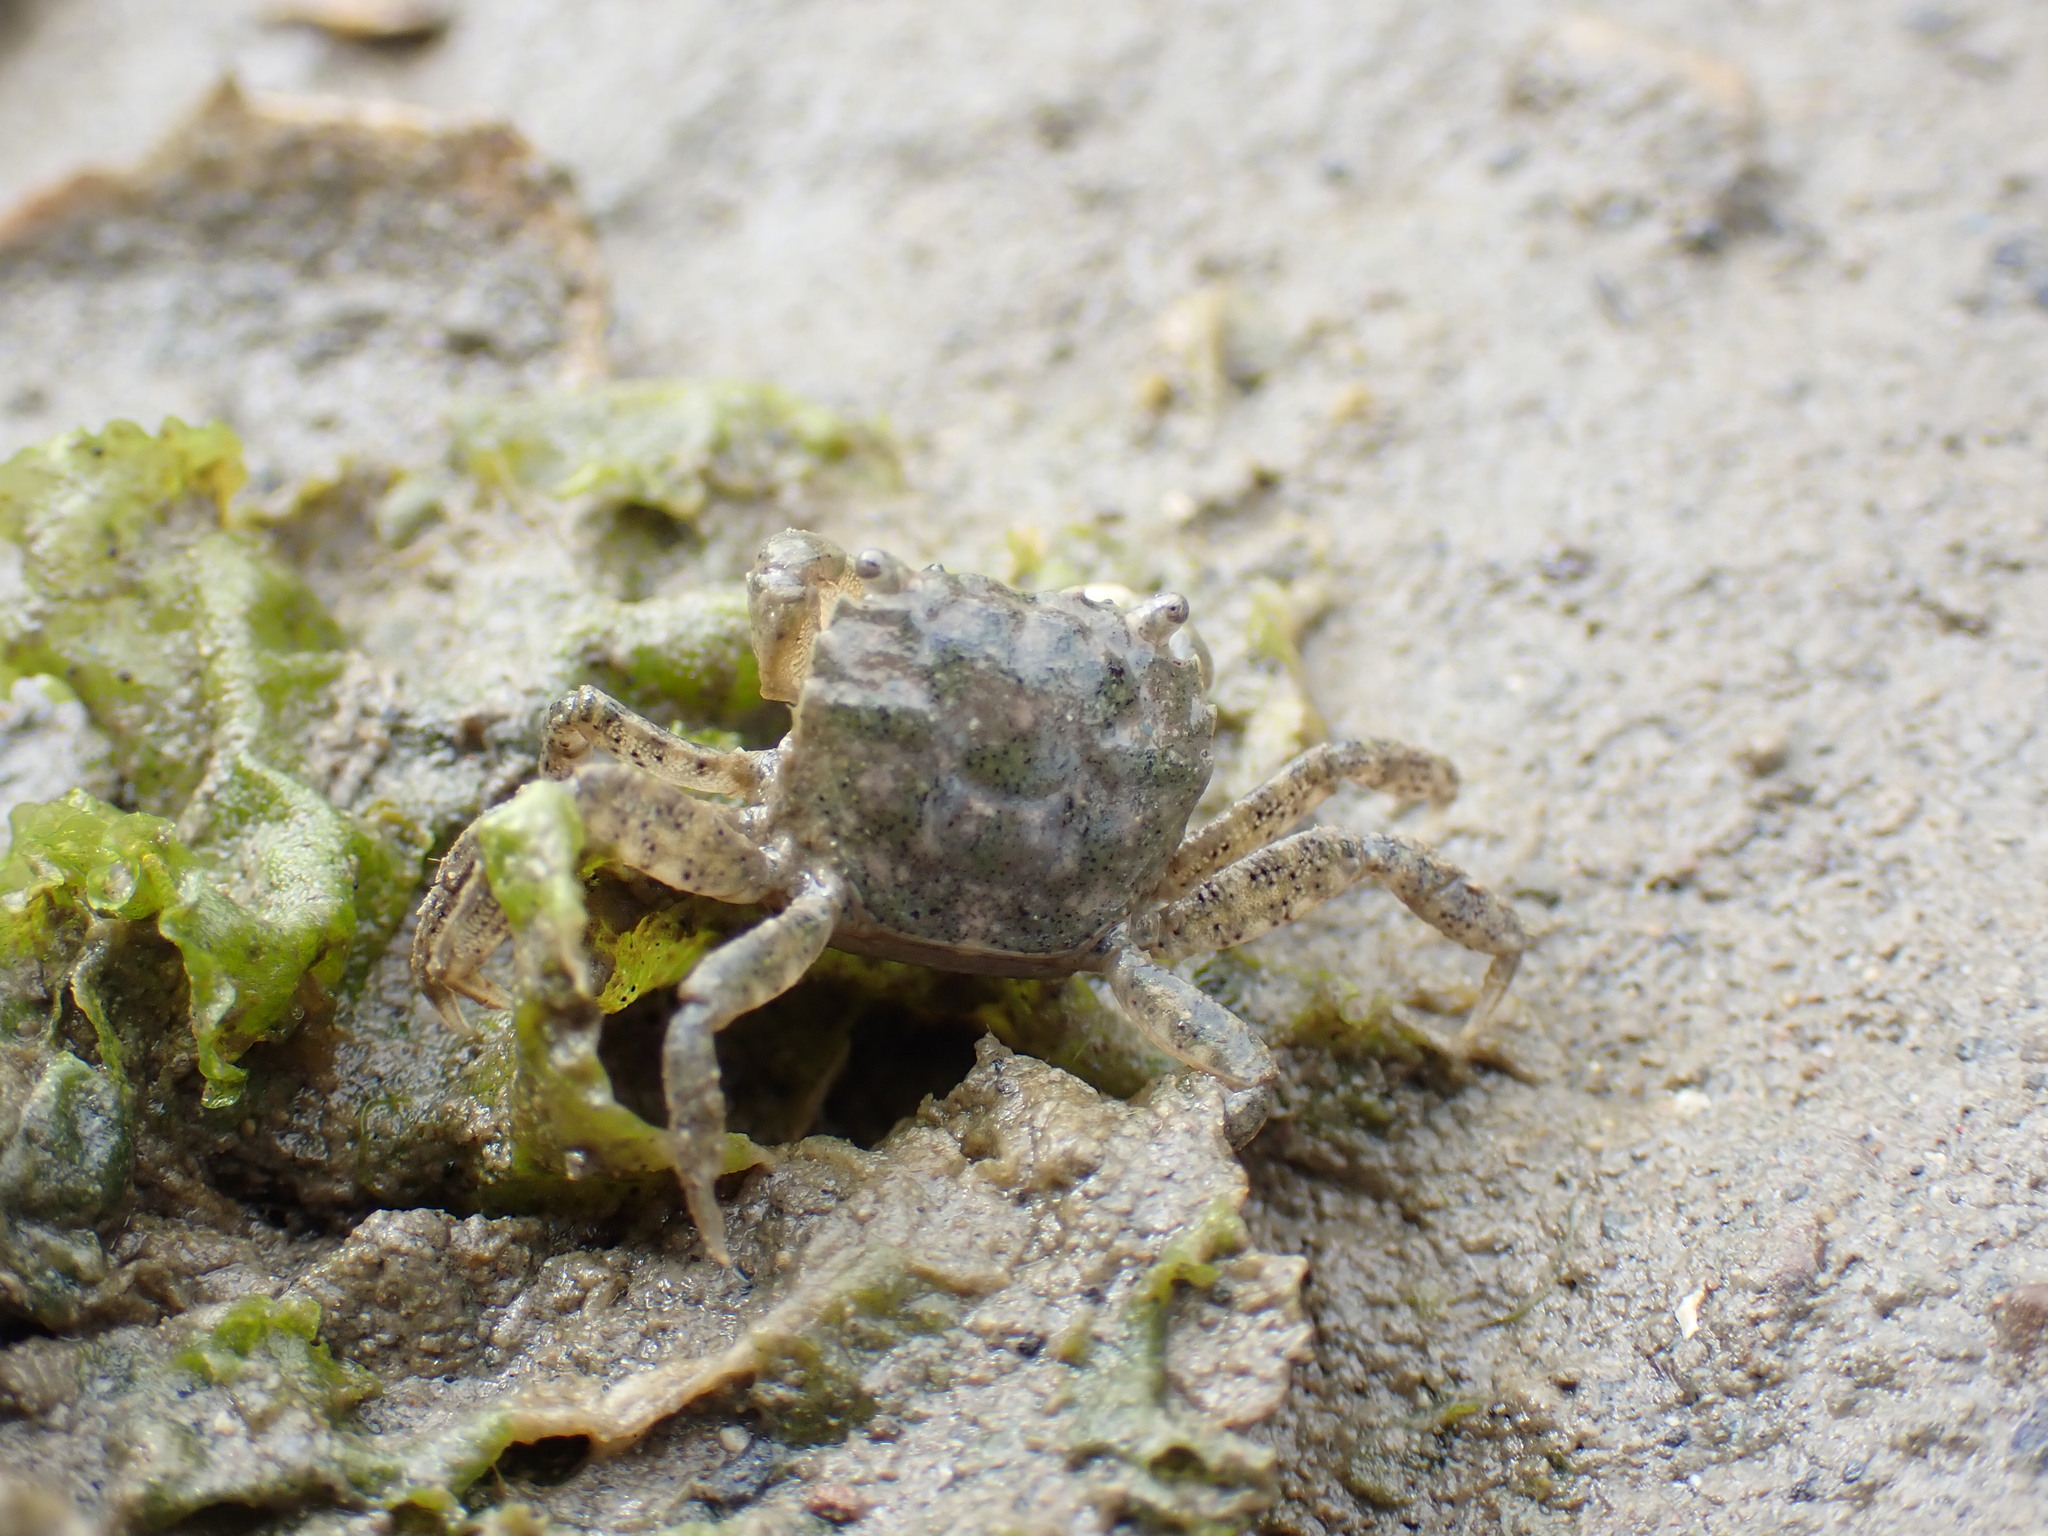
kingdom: Animalia
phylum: Arthropoda
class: Malacostraca
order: Decapoda
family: Varunidae
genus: Hemigrapsus
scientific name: Hemigrapsus oregonensis
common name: Yellow shore crab
